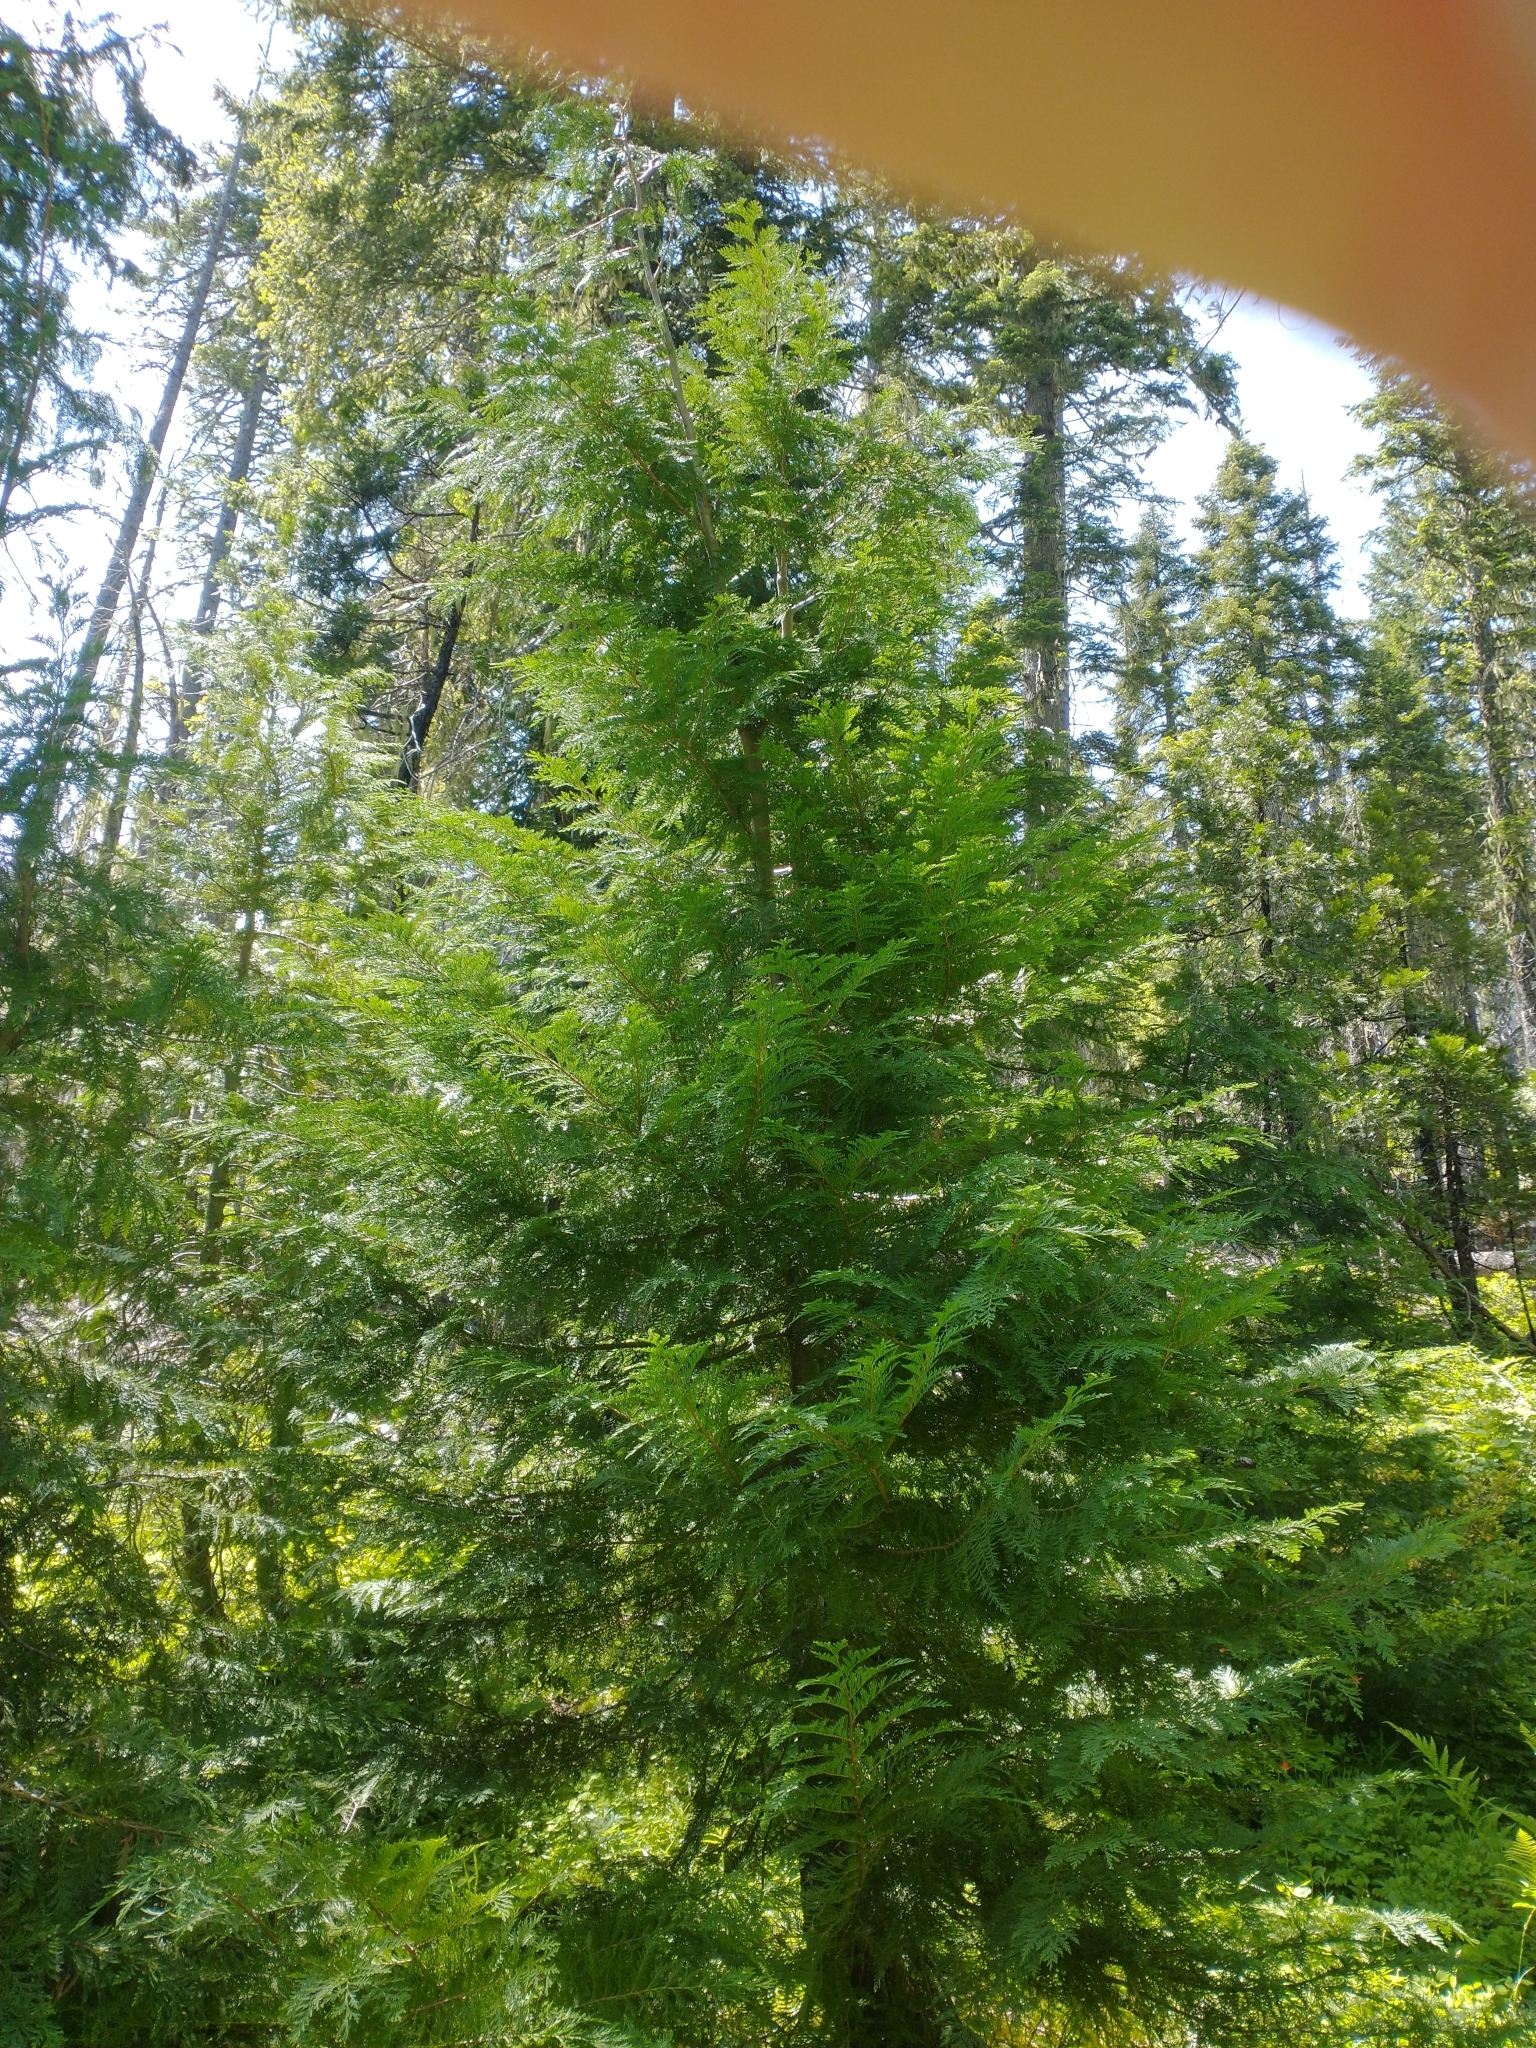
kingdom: Plantae
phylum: Tracheophyta
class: Pinopsida
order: Pinales
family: Cupressaceae
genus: Chamaecyparis
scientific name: Chamaecyparis lawsoniana
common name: Lawson's cypress
